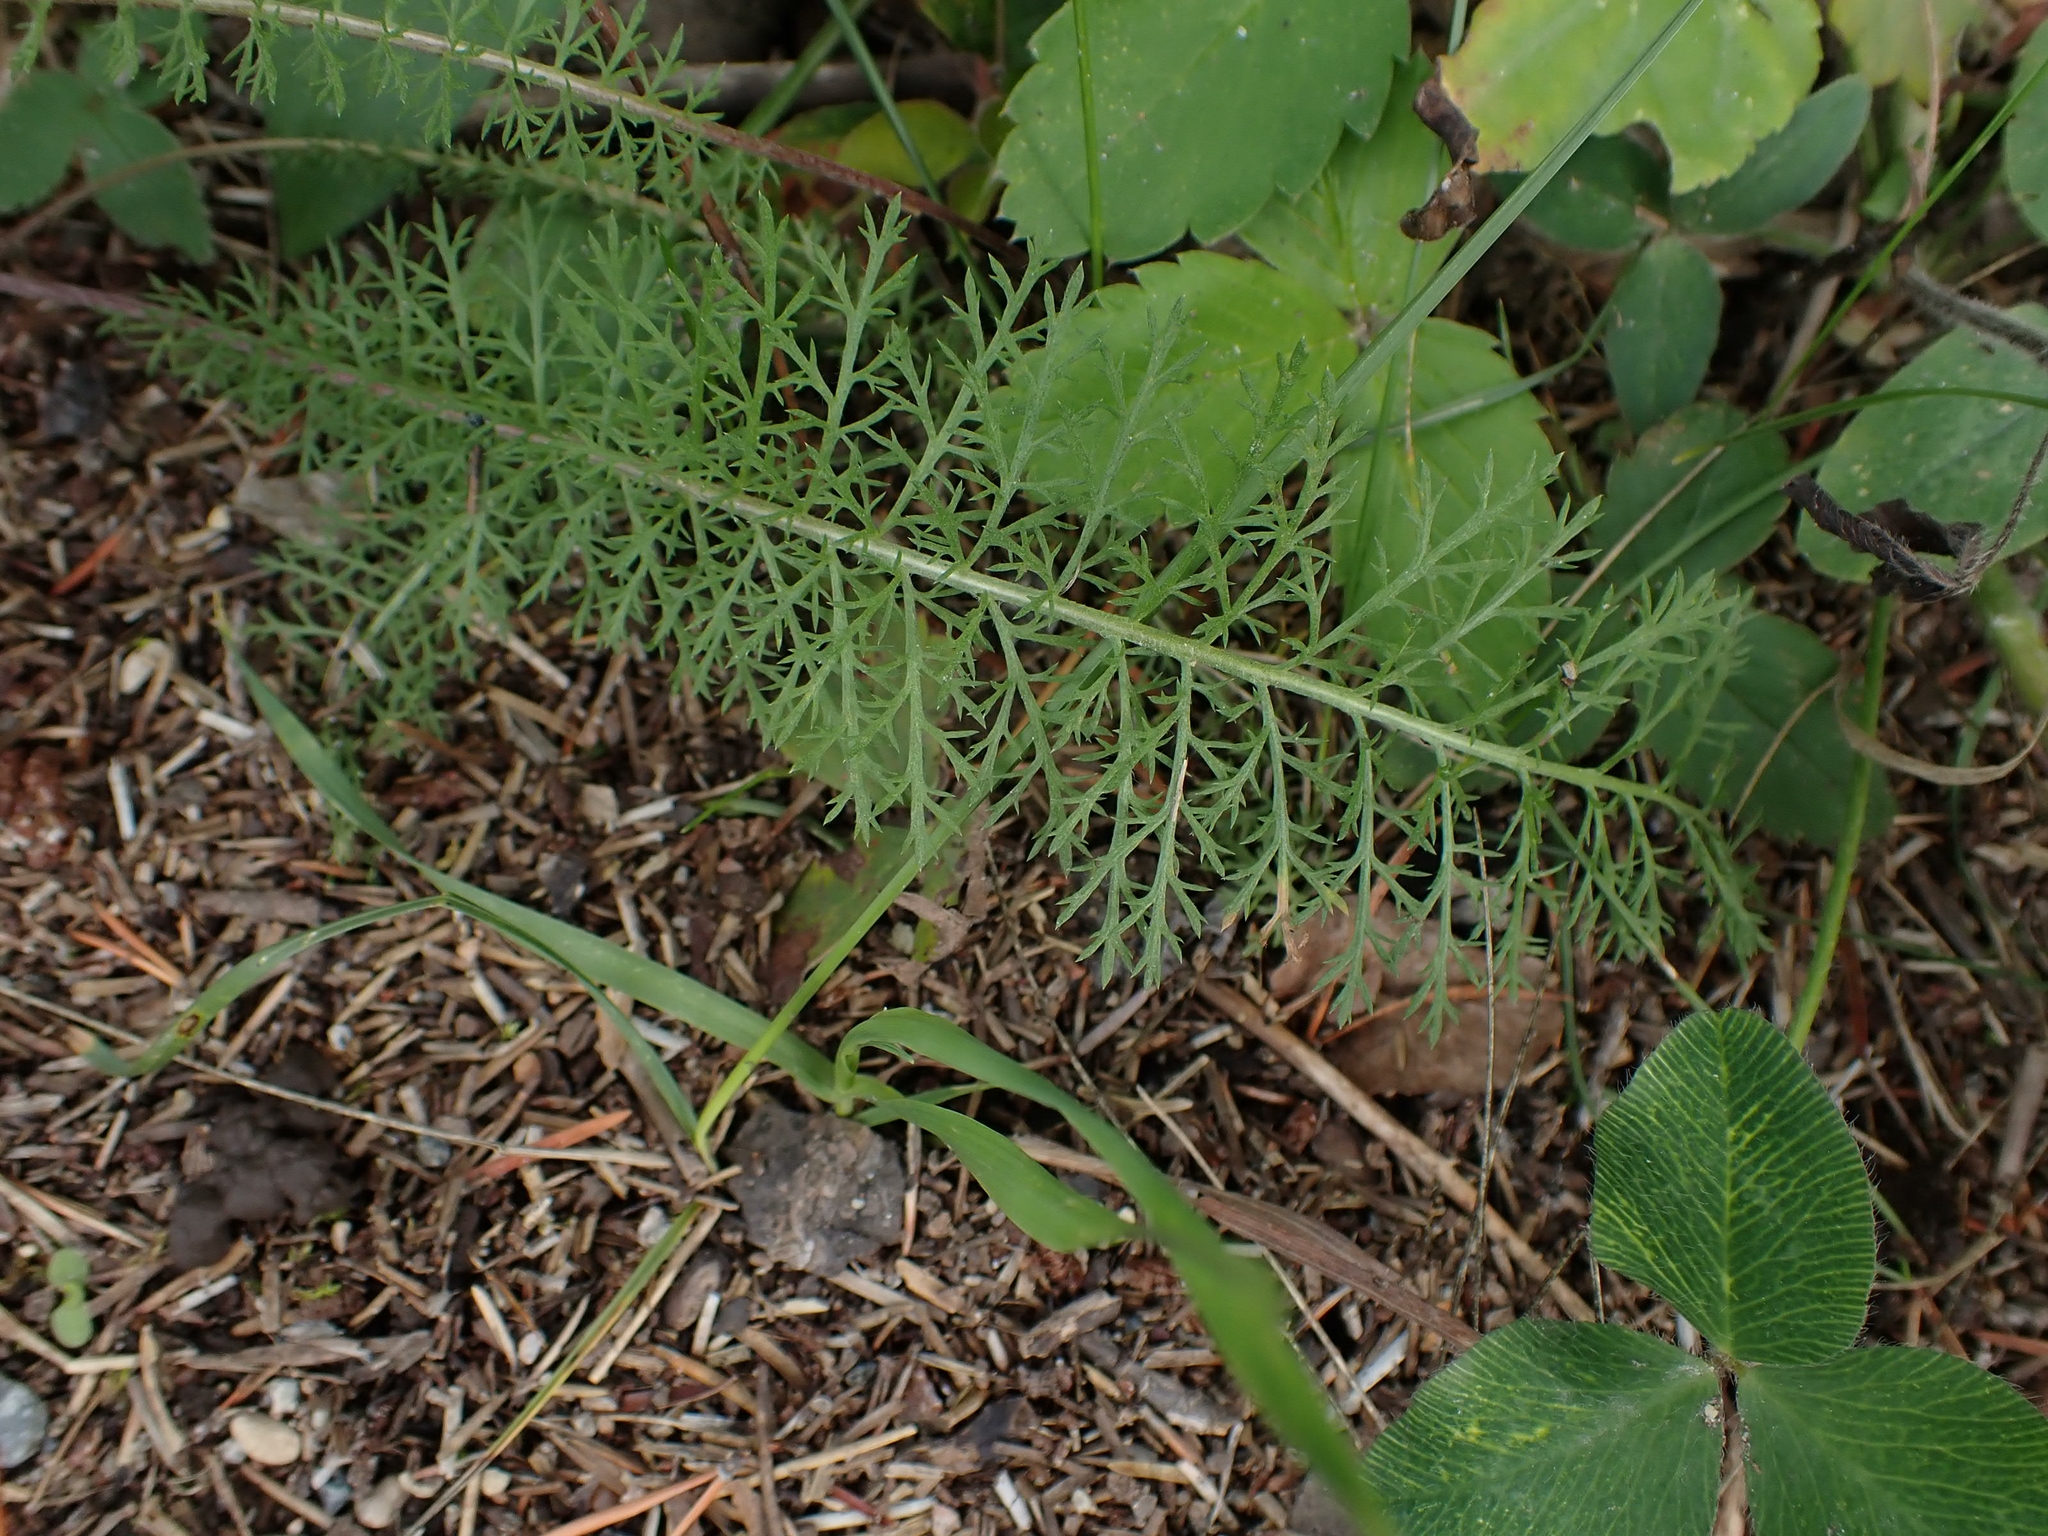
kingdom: Plantae
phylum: Tracheophyta
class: Magnoliopsida
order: Asterales
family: Asteraceae
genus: Achillea
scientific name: Achillea millefolium
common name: Yarrow
